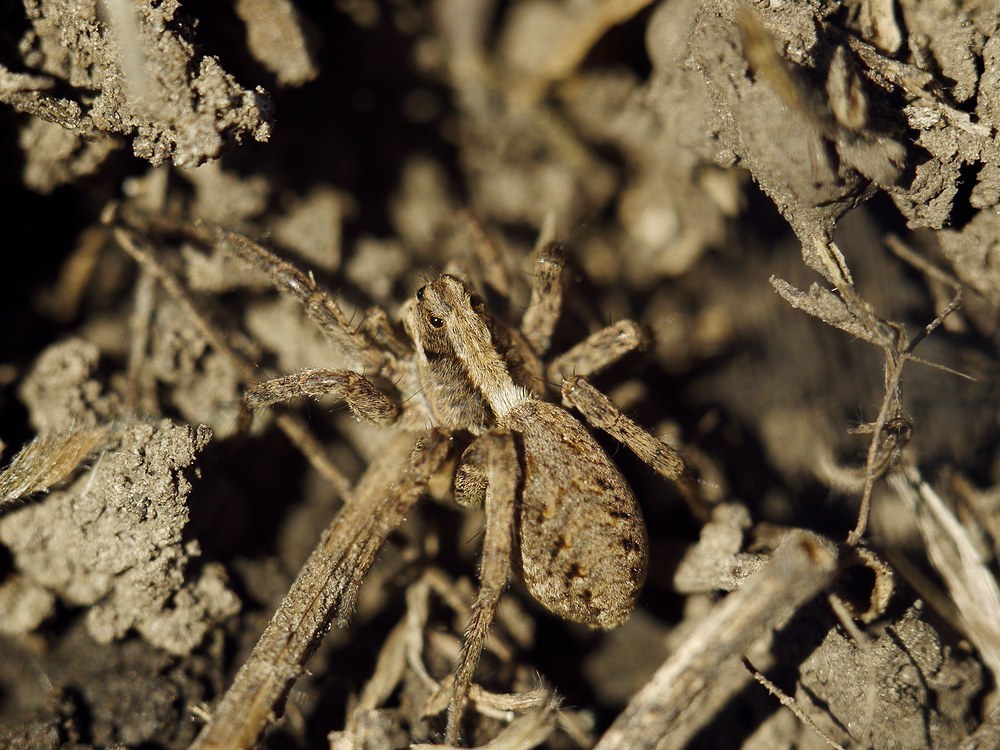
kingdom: Animalia
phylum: Arthropoda
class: Arachnida
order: Araneae
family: Lycosidae
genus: Alopecosa
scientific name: Alopecosa cursor
